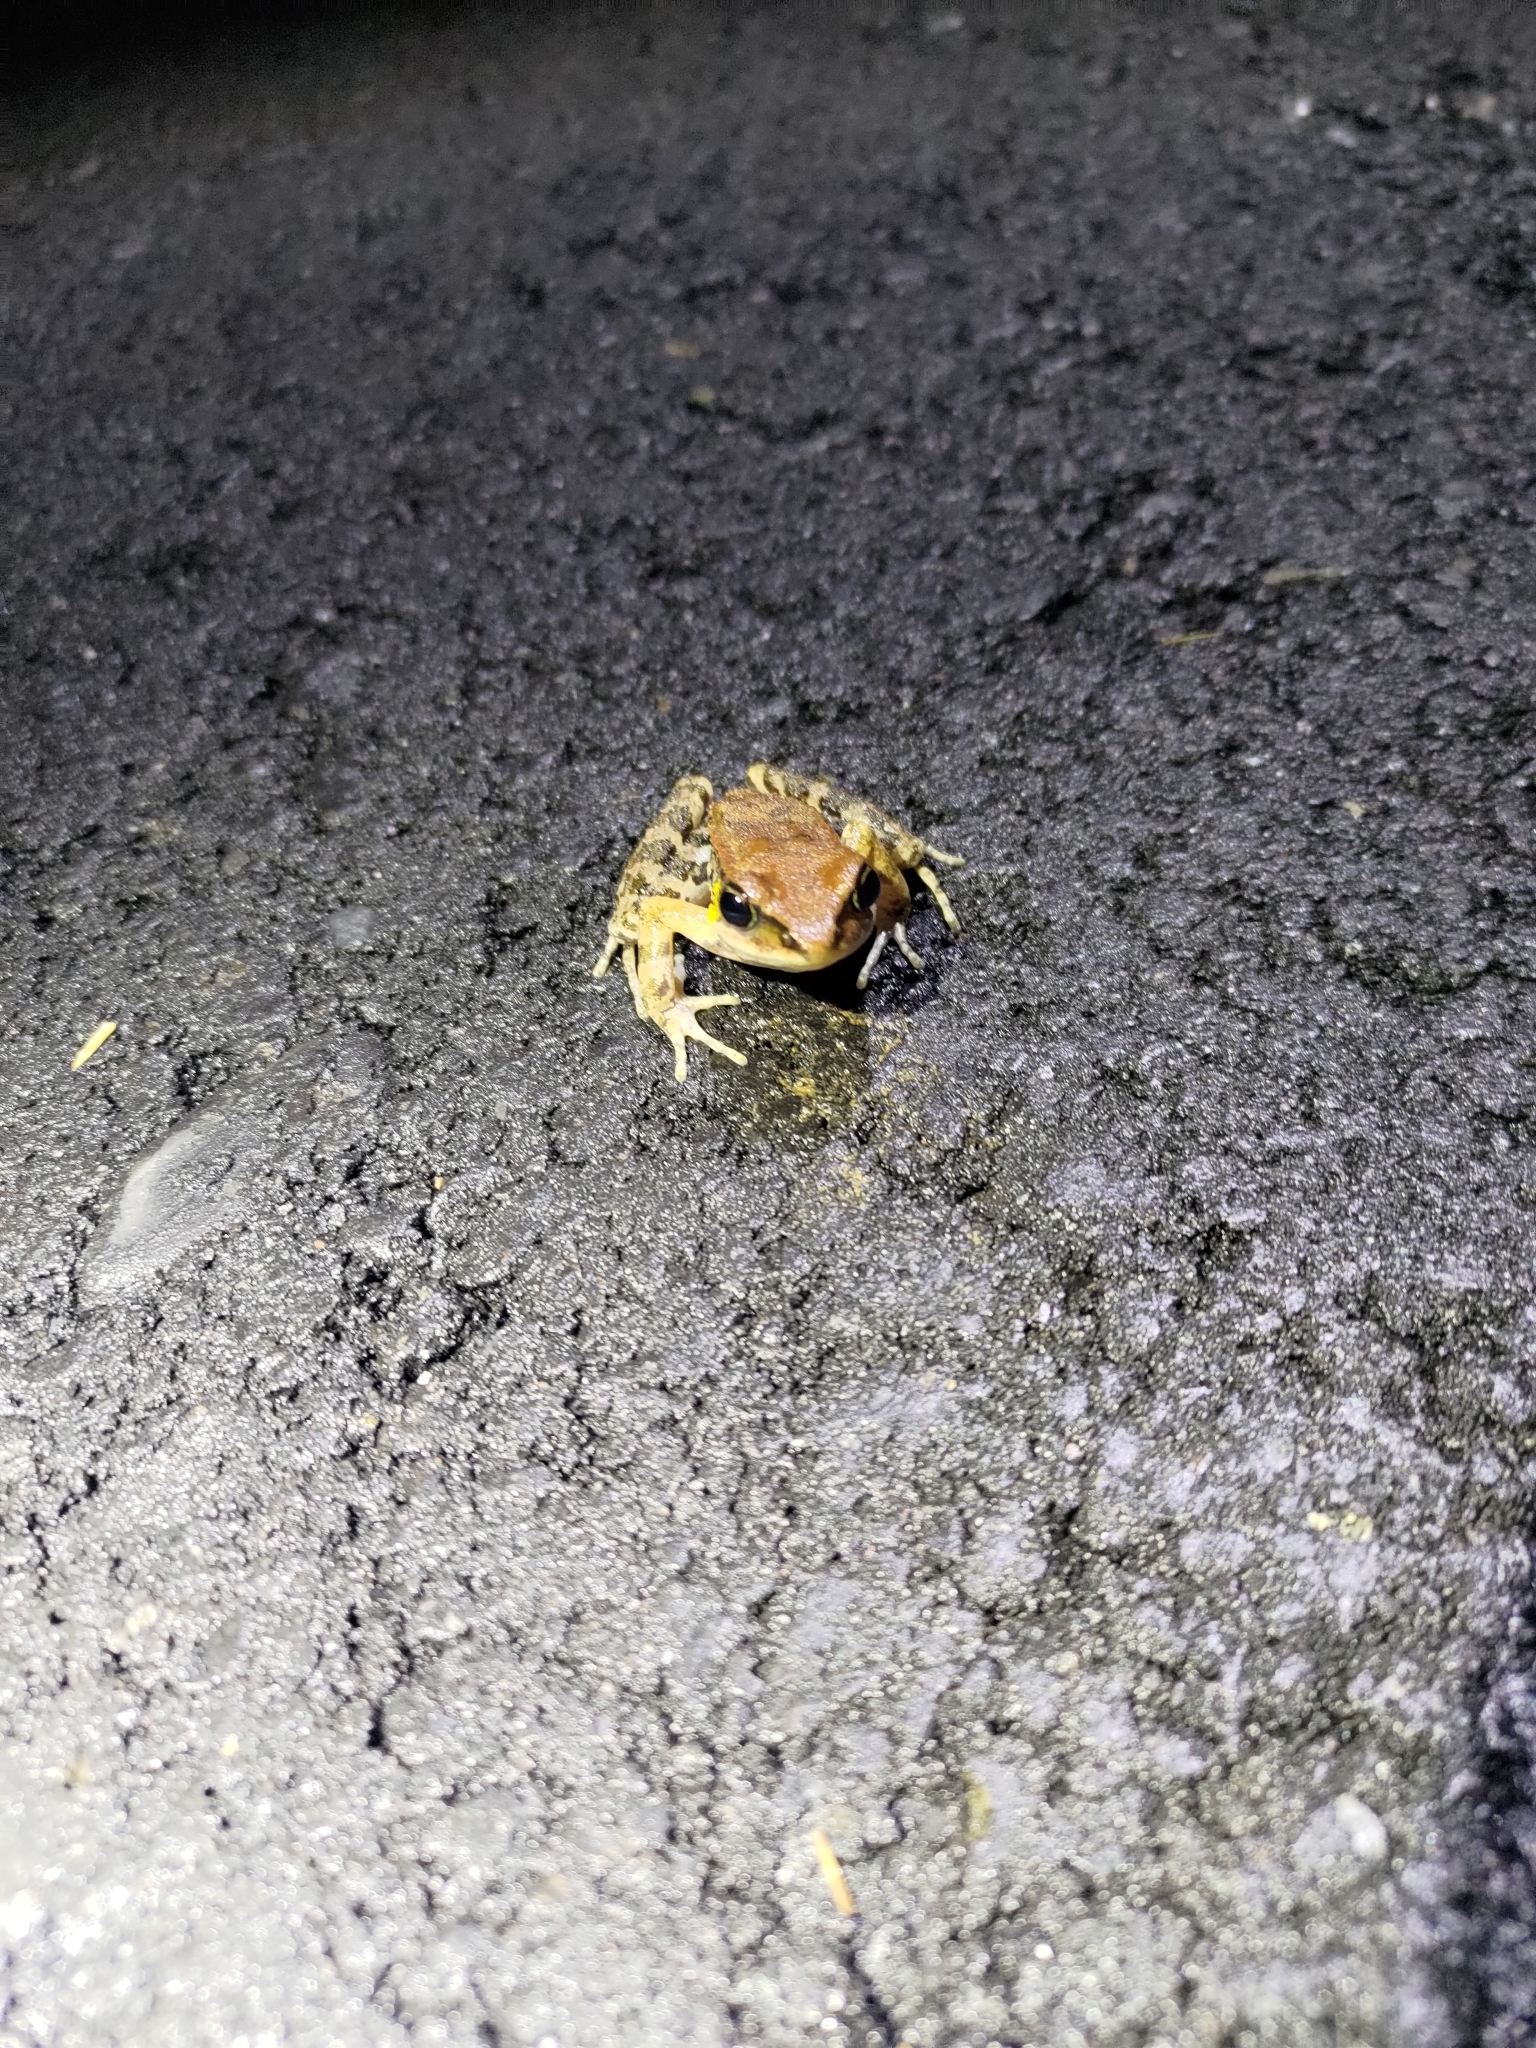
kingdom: Animalia
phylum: Chordata
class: Amphibia
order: Anura
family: Ranidae
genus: Hylarana
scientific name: Hylarana latouchii
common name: Broad-folded frog
